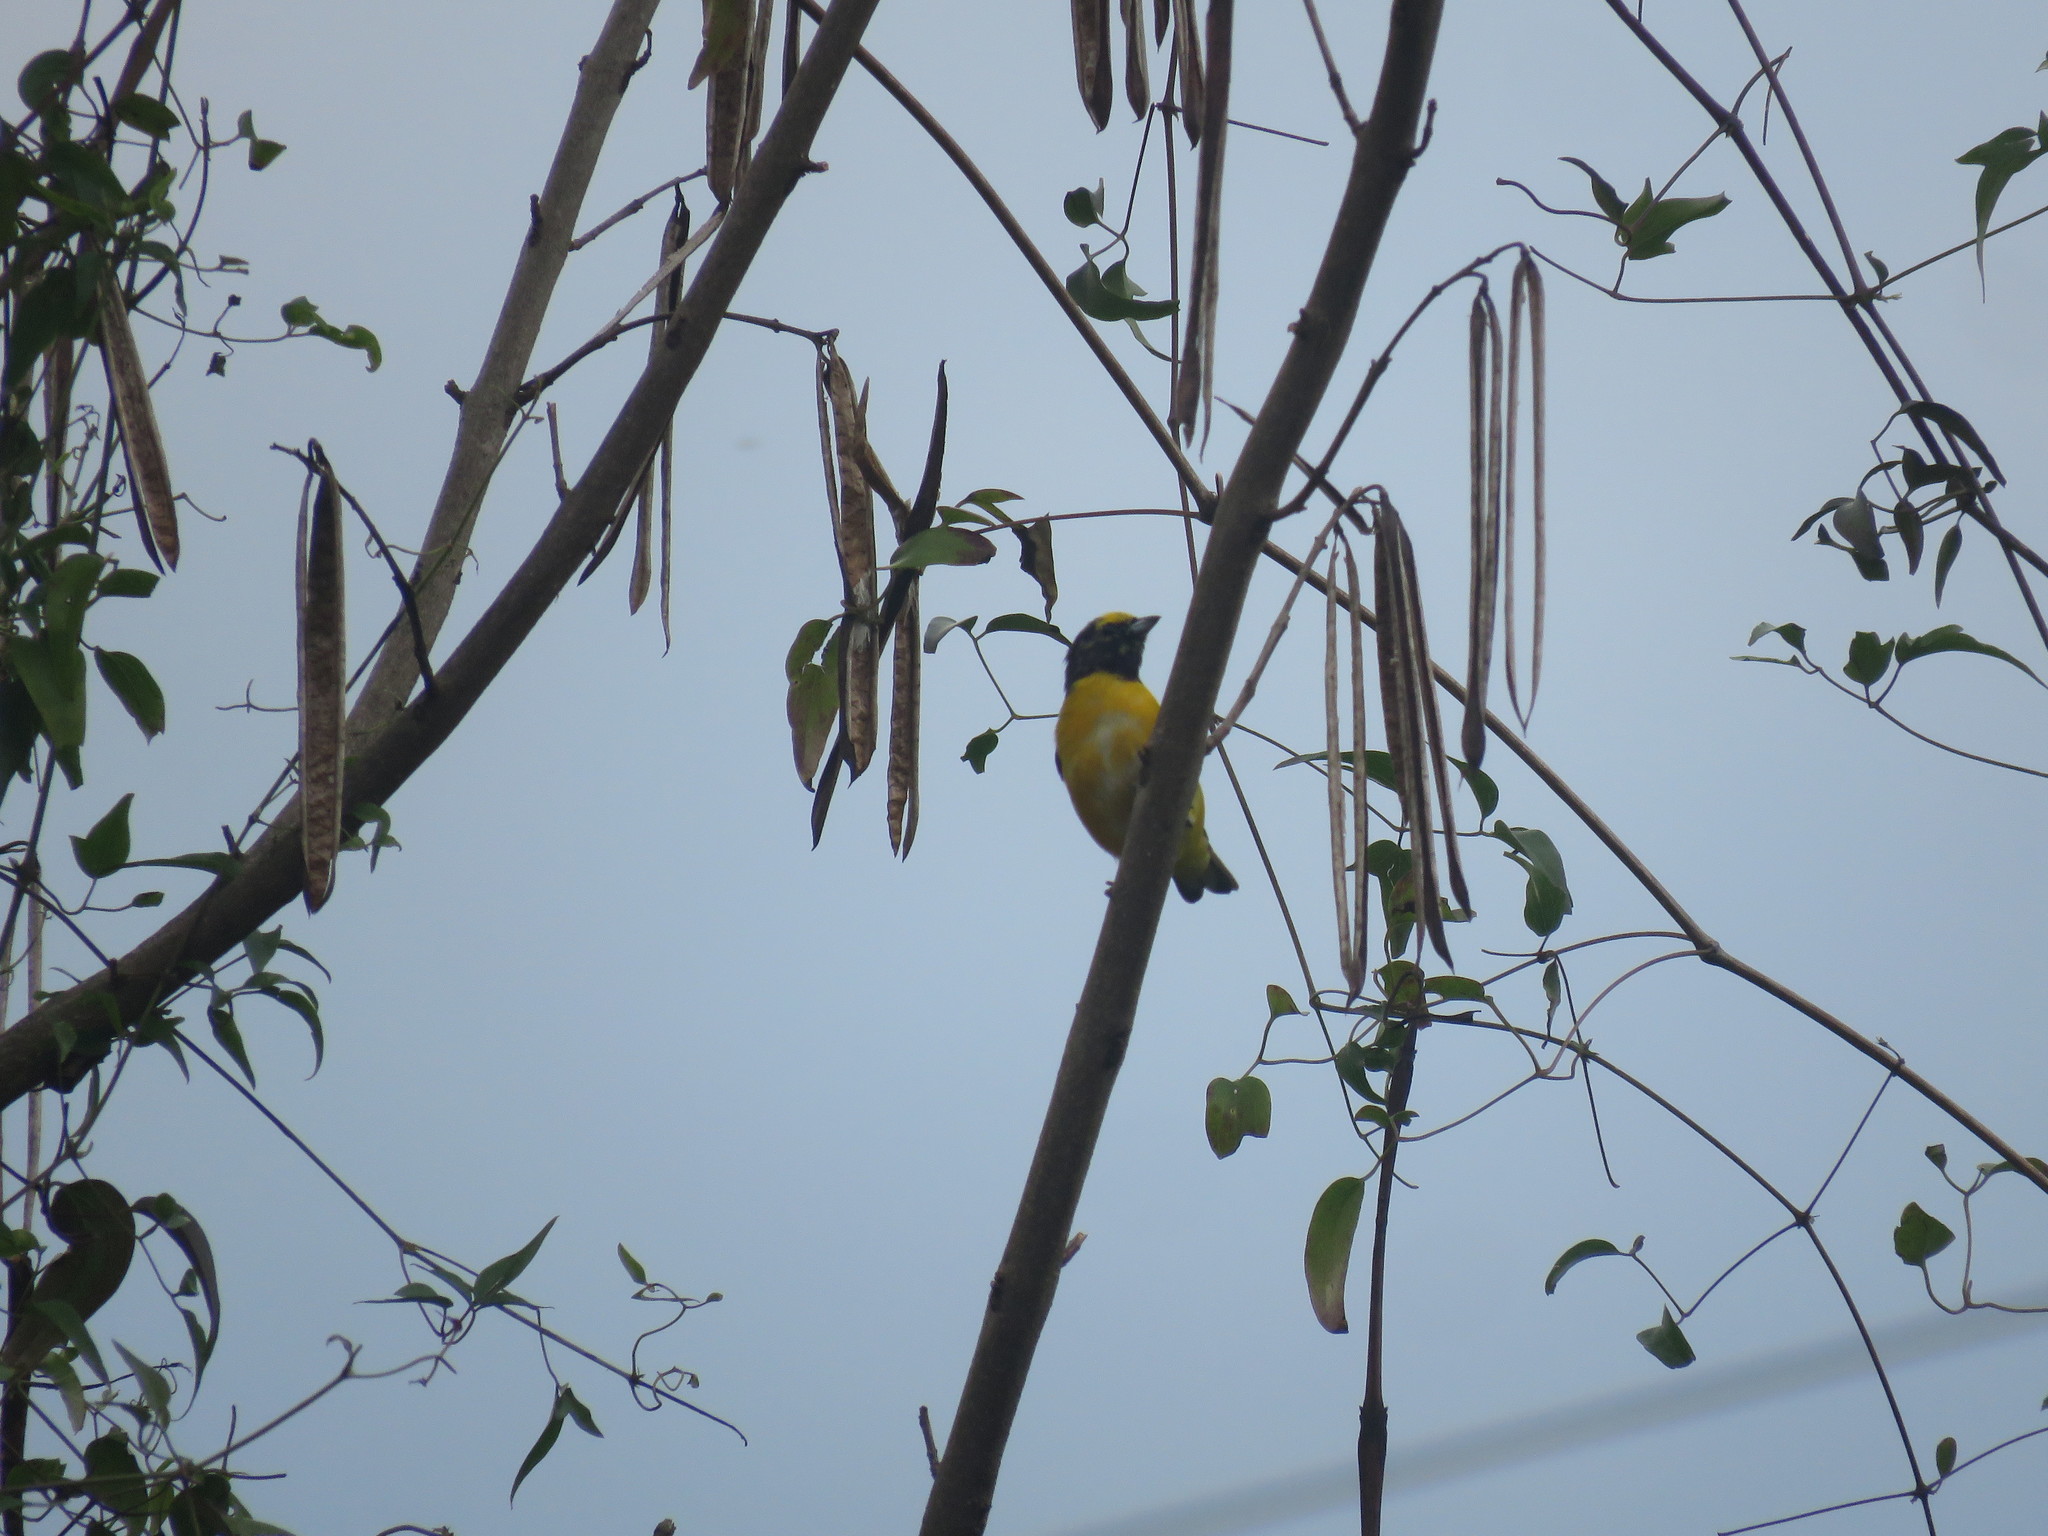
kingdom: Animalia
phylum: Chordata
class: Aves
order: Passeriformes
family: Fringillidae
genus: Euphonia
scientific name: Euphonia chlorotica
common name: Purple-throated euphonia
